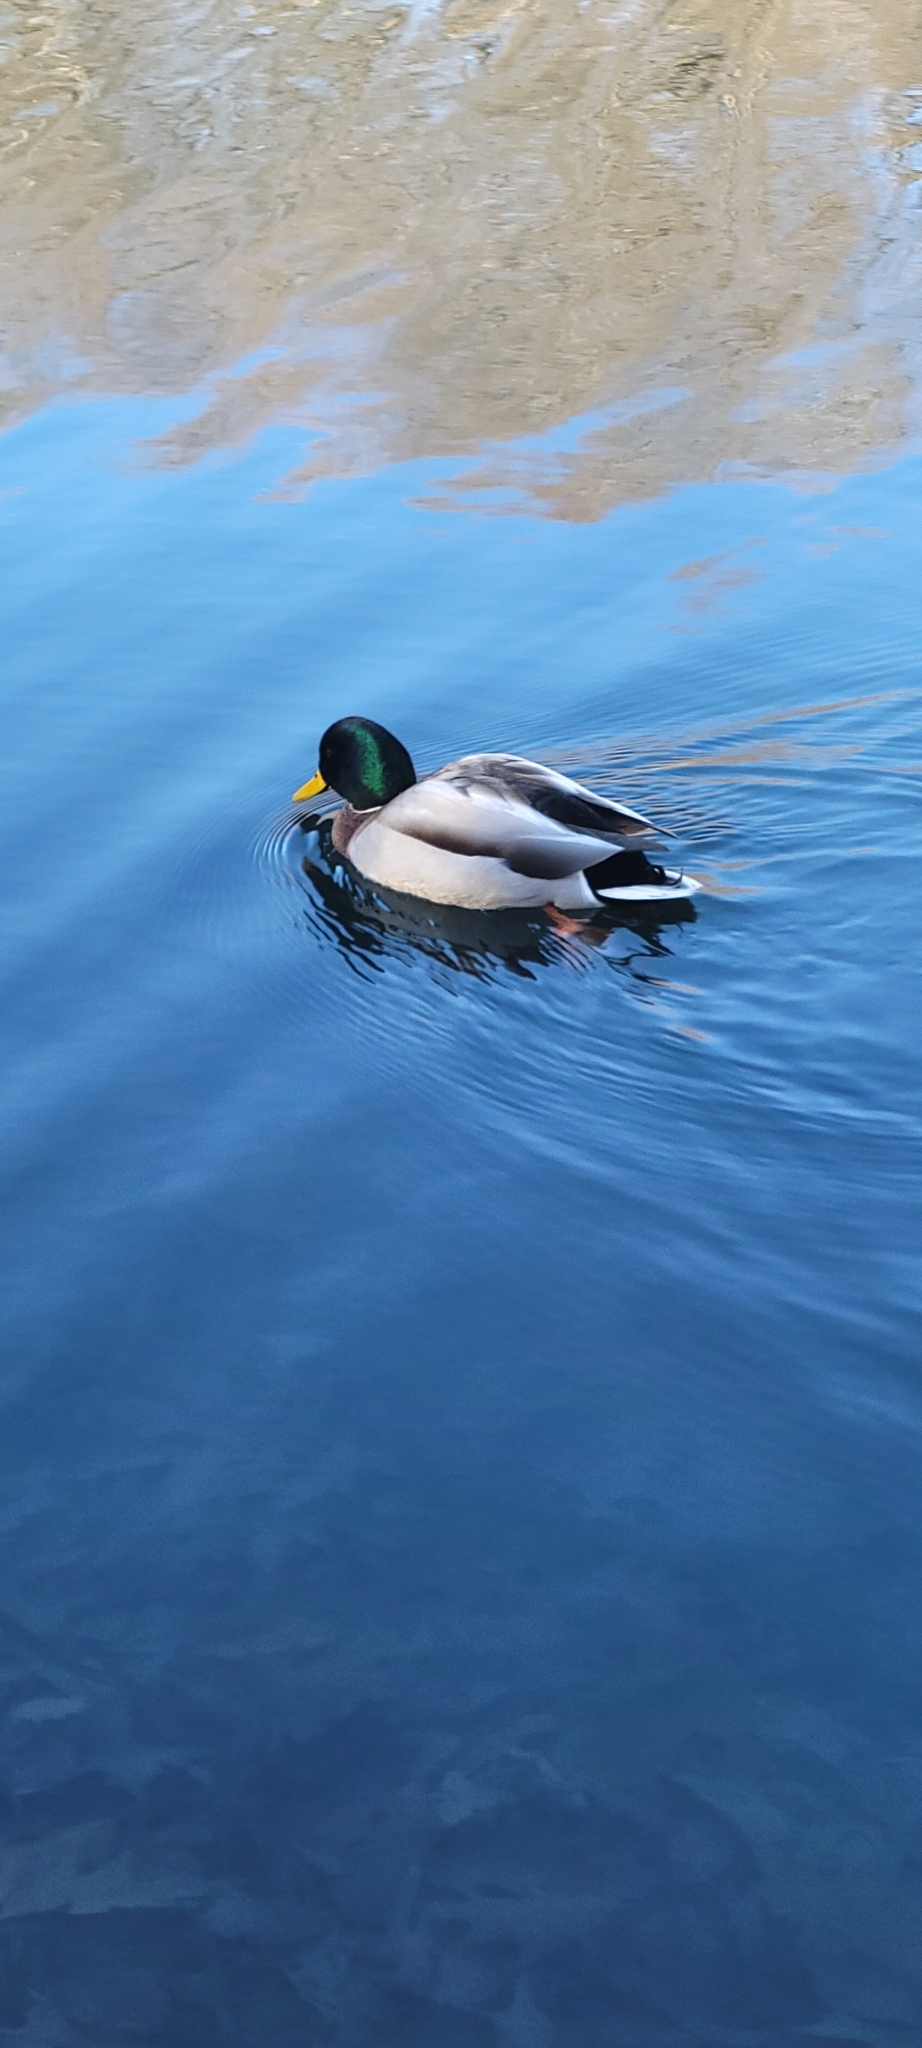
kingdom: Animalia
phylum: Chordata
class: Aves
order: Anseriformes
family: Anatidae
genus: Anas
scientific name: Anas platyrhynchos
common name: Mallard
